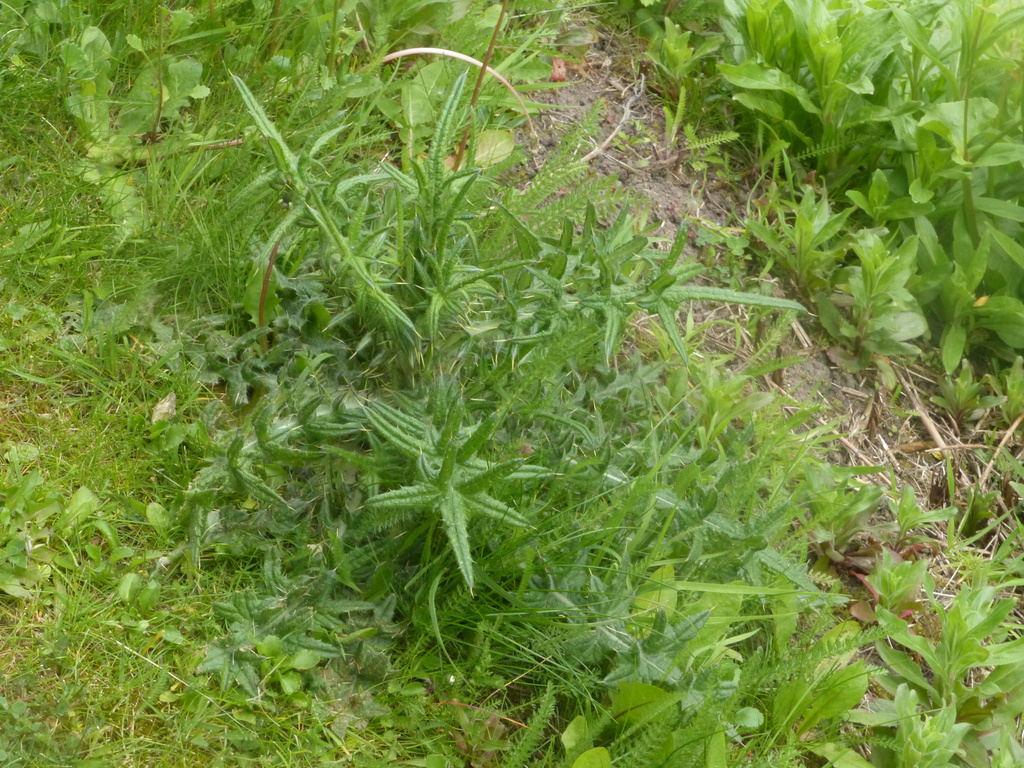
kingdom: Plantae
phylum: Tracheophyta
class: Magnoliopsida
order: Asterales
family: Asteraceae
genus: Cirsium
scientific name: Cirsium vulgare
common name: Bull thistle
